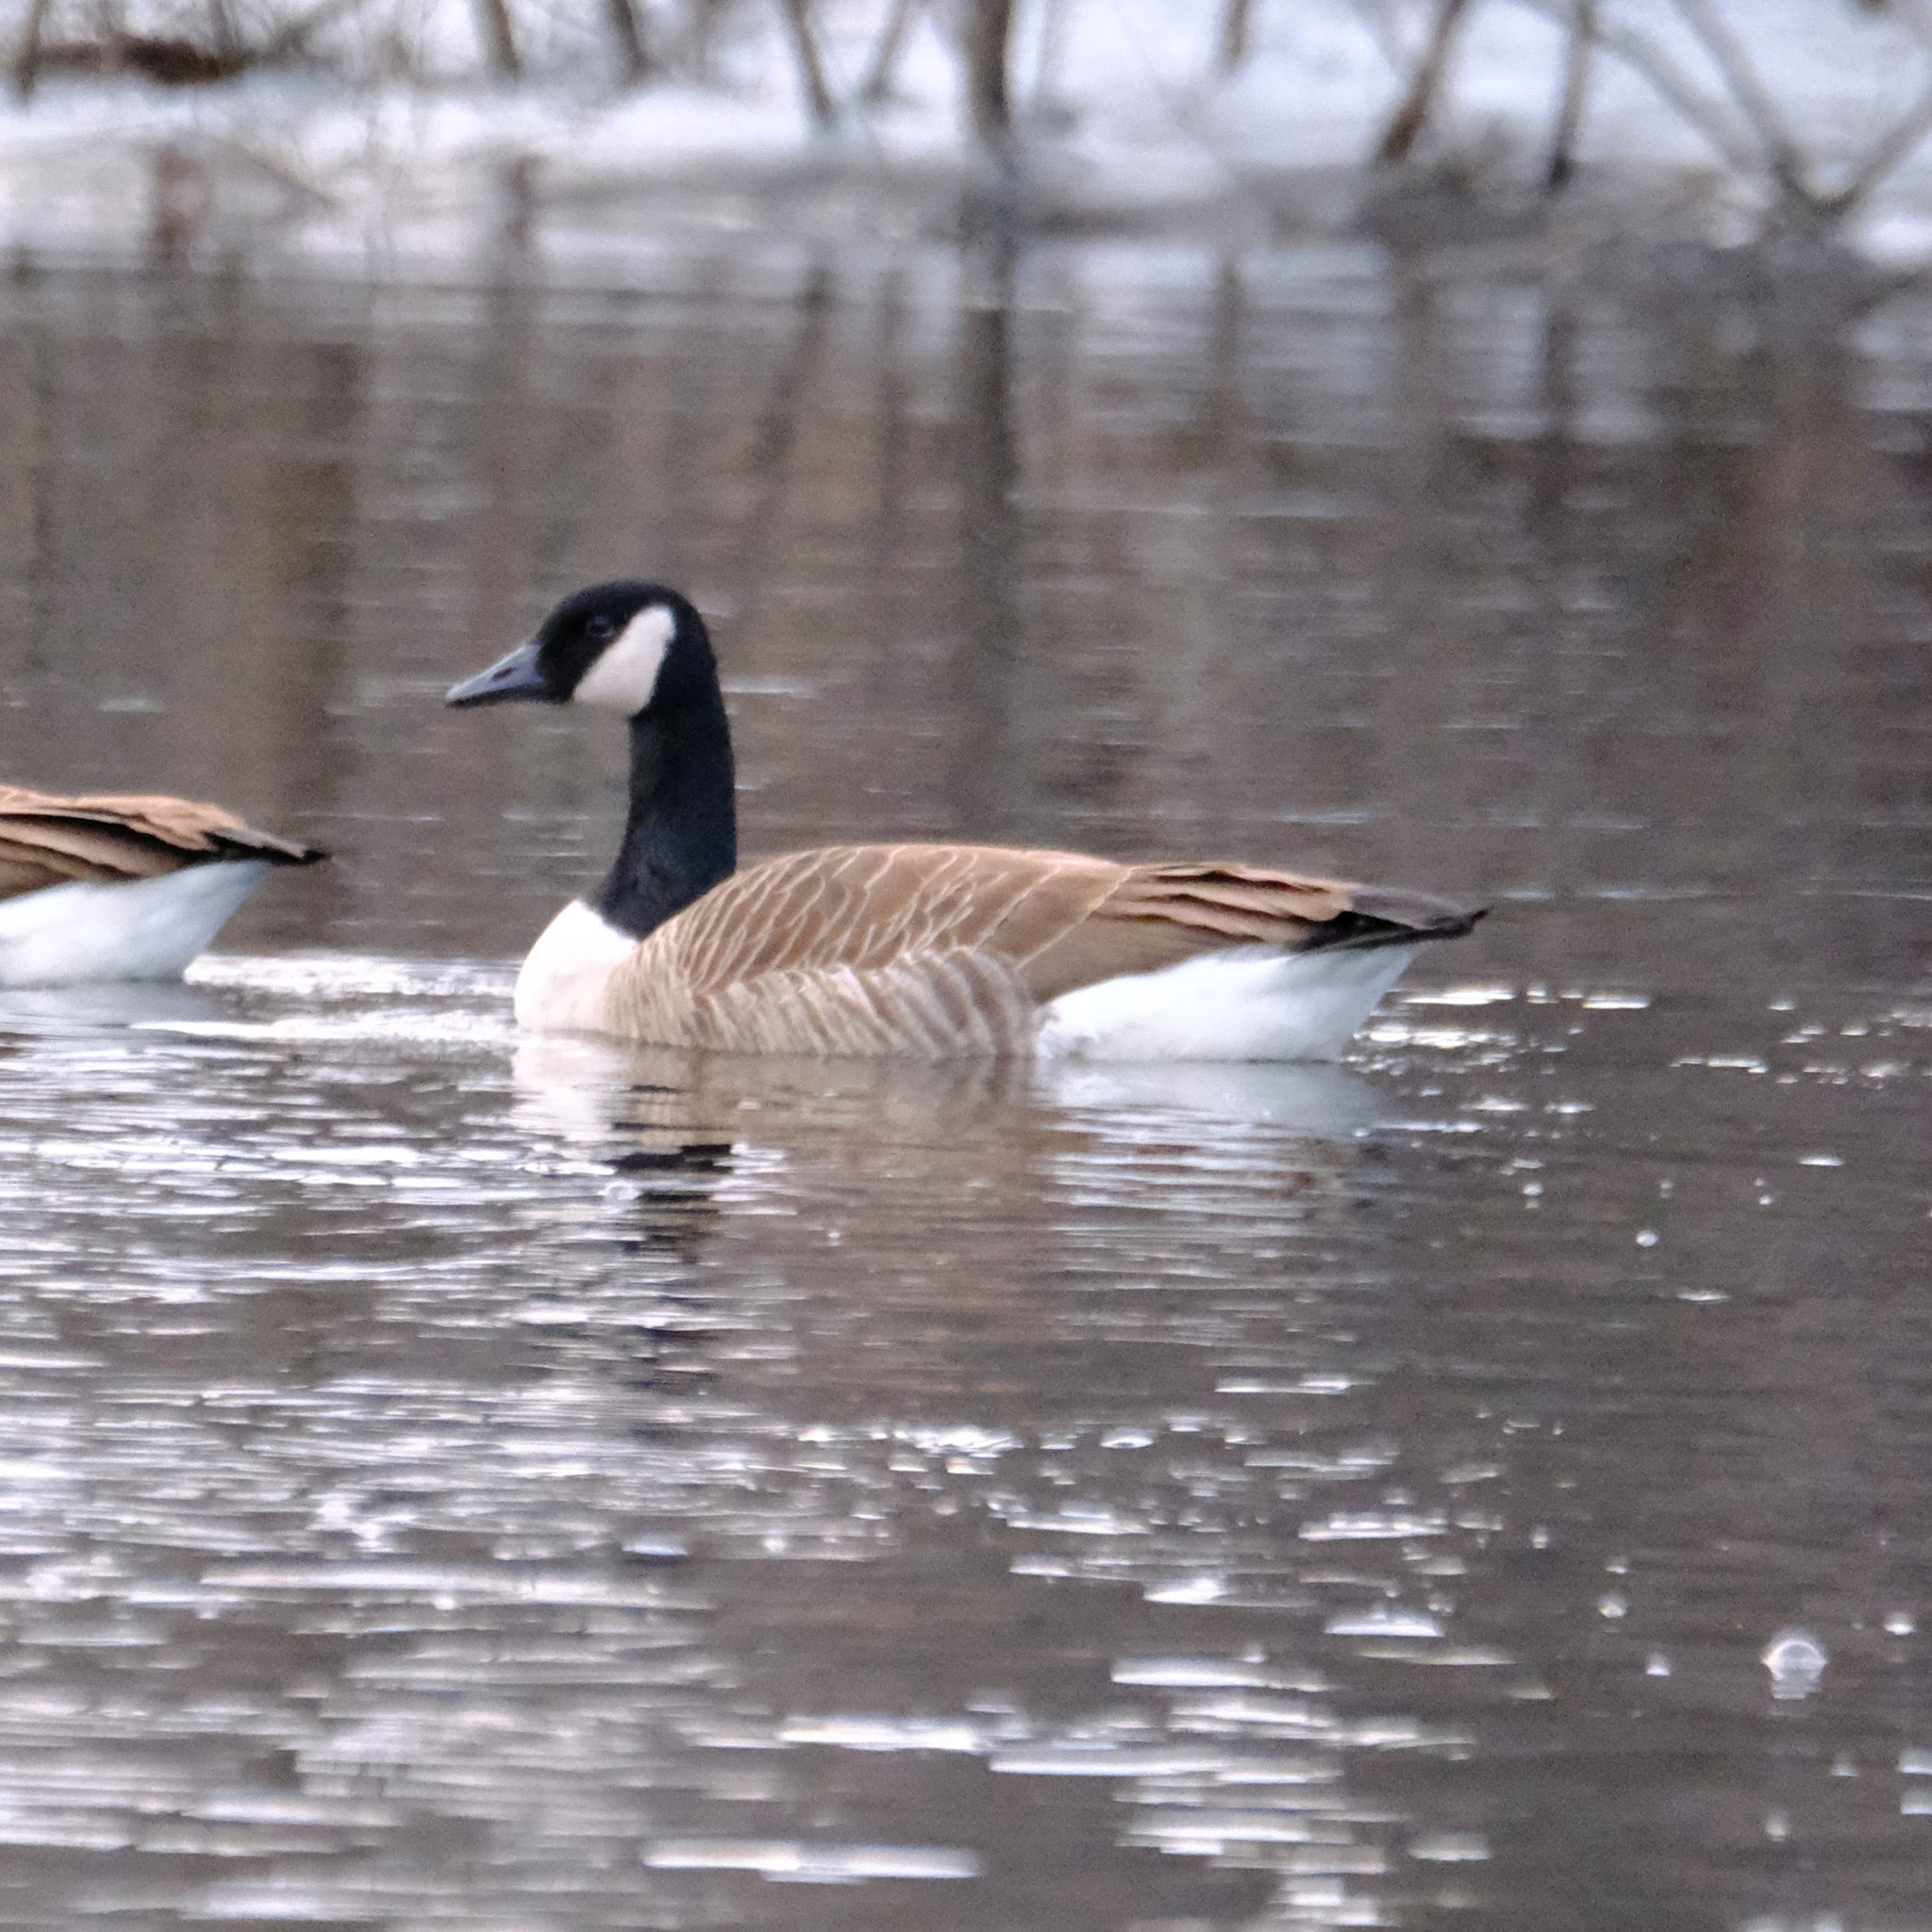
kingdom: Animalia
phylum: Chordata
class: Aves
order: Anseriformes
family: Anatidae
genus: Branta
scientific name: Branta canadensis
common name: Canada goose
